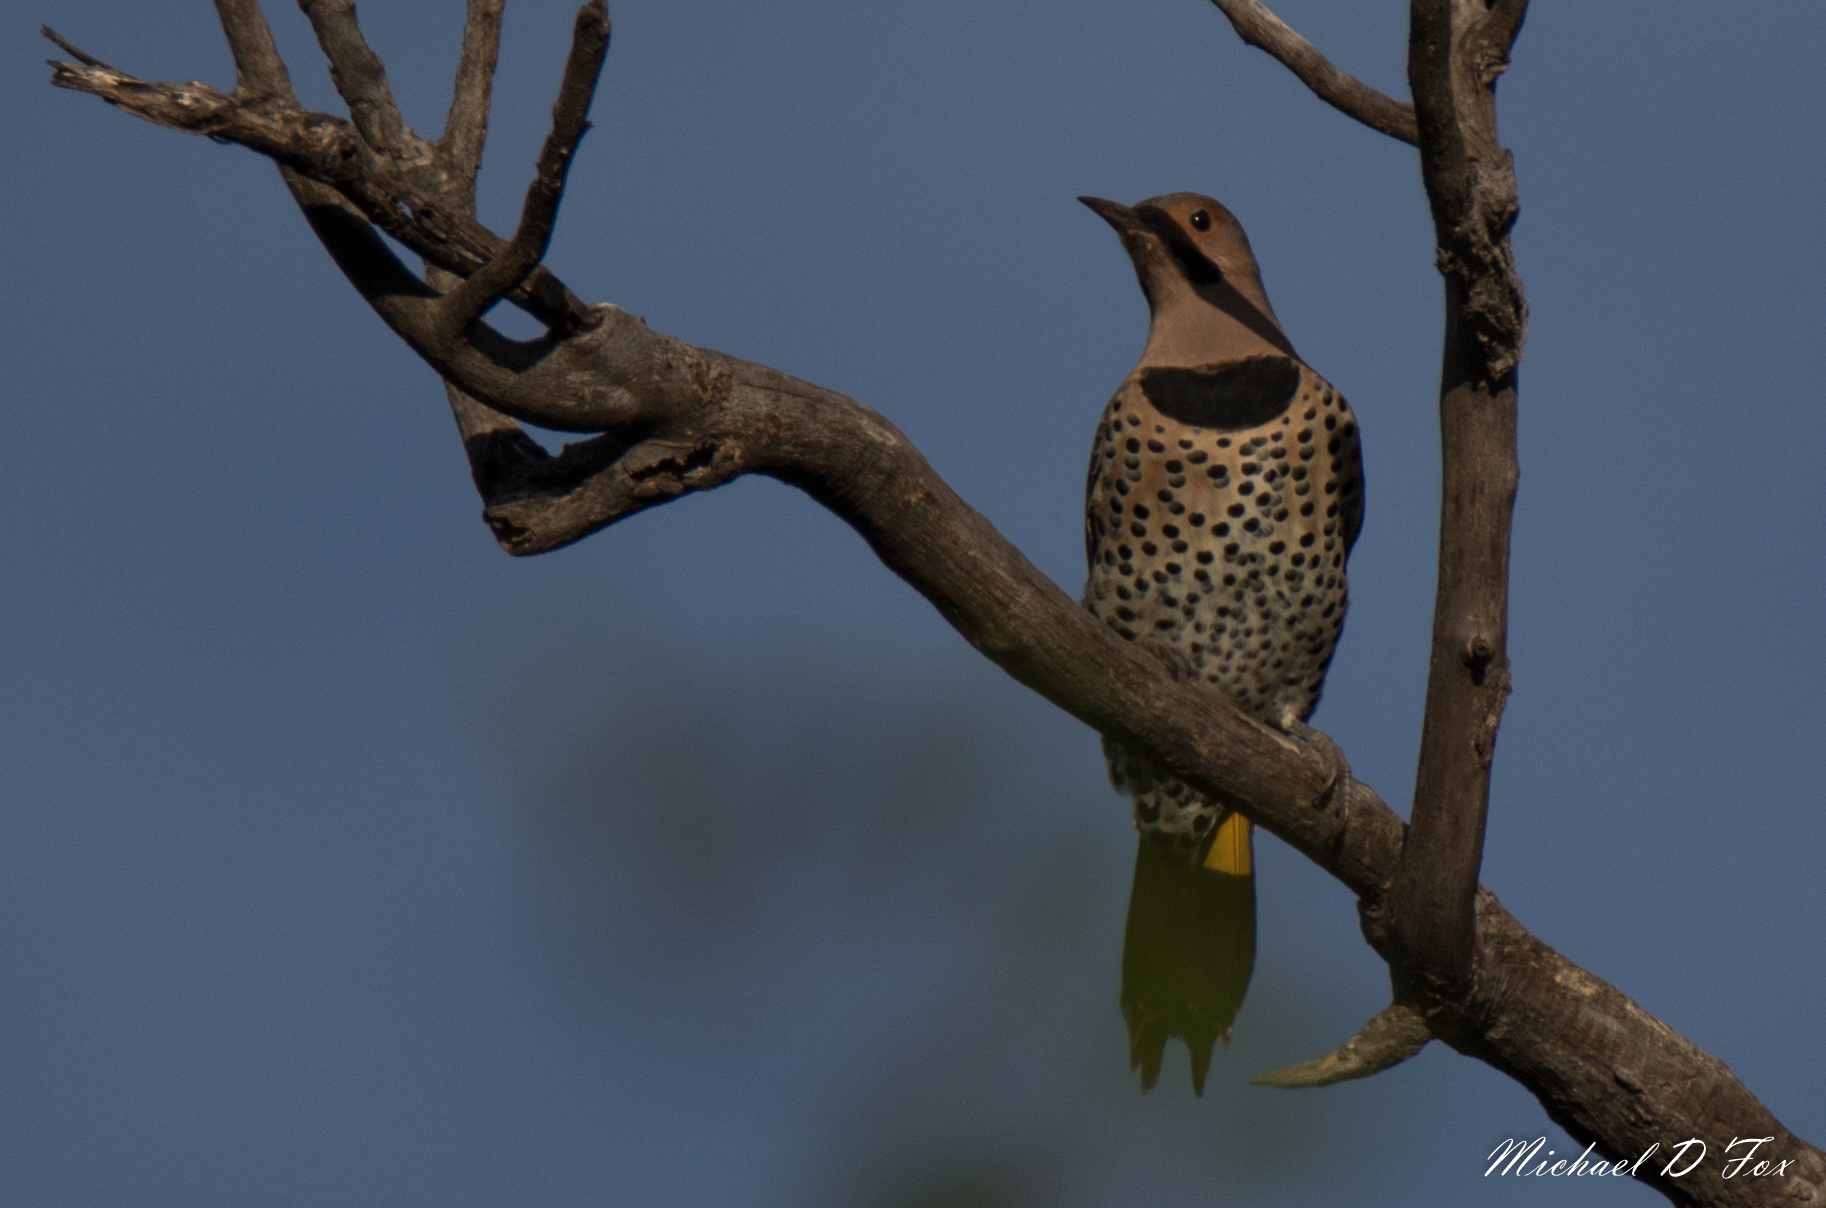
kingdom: Animalia
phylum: Chordata
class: Aves
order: Piciformes
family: Picidae
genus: Colaptes
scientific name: Colaptes auratus
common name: Northern flicker
